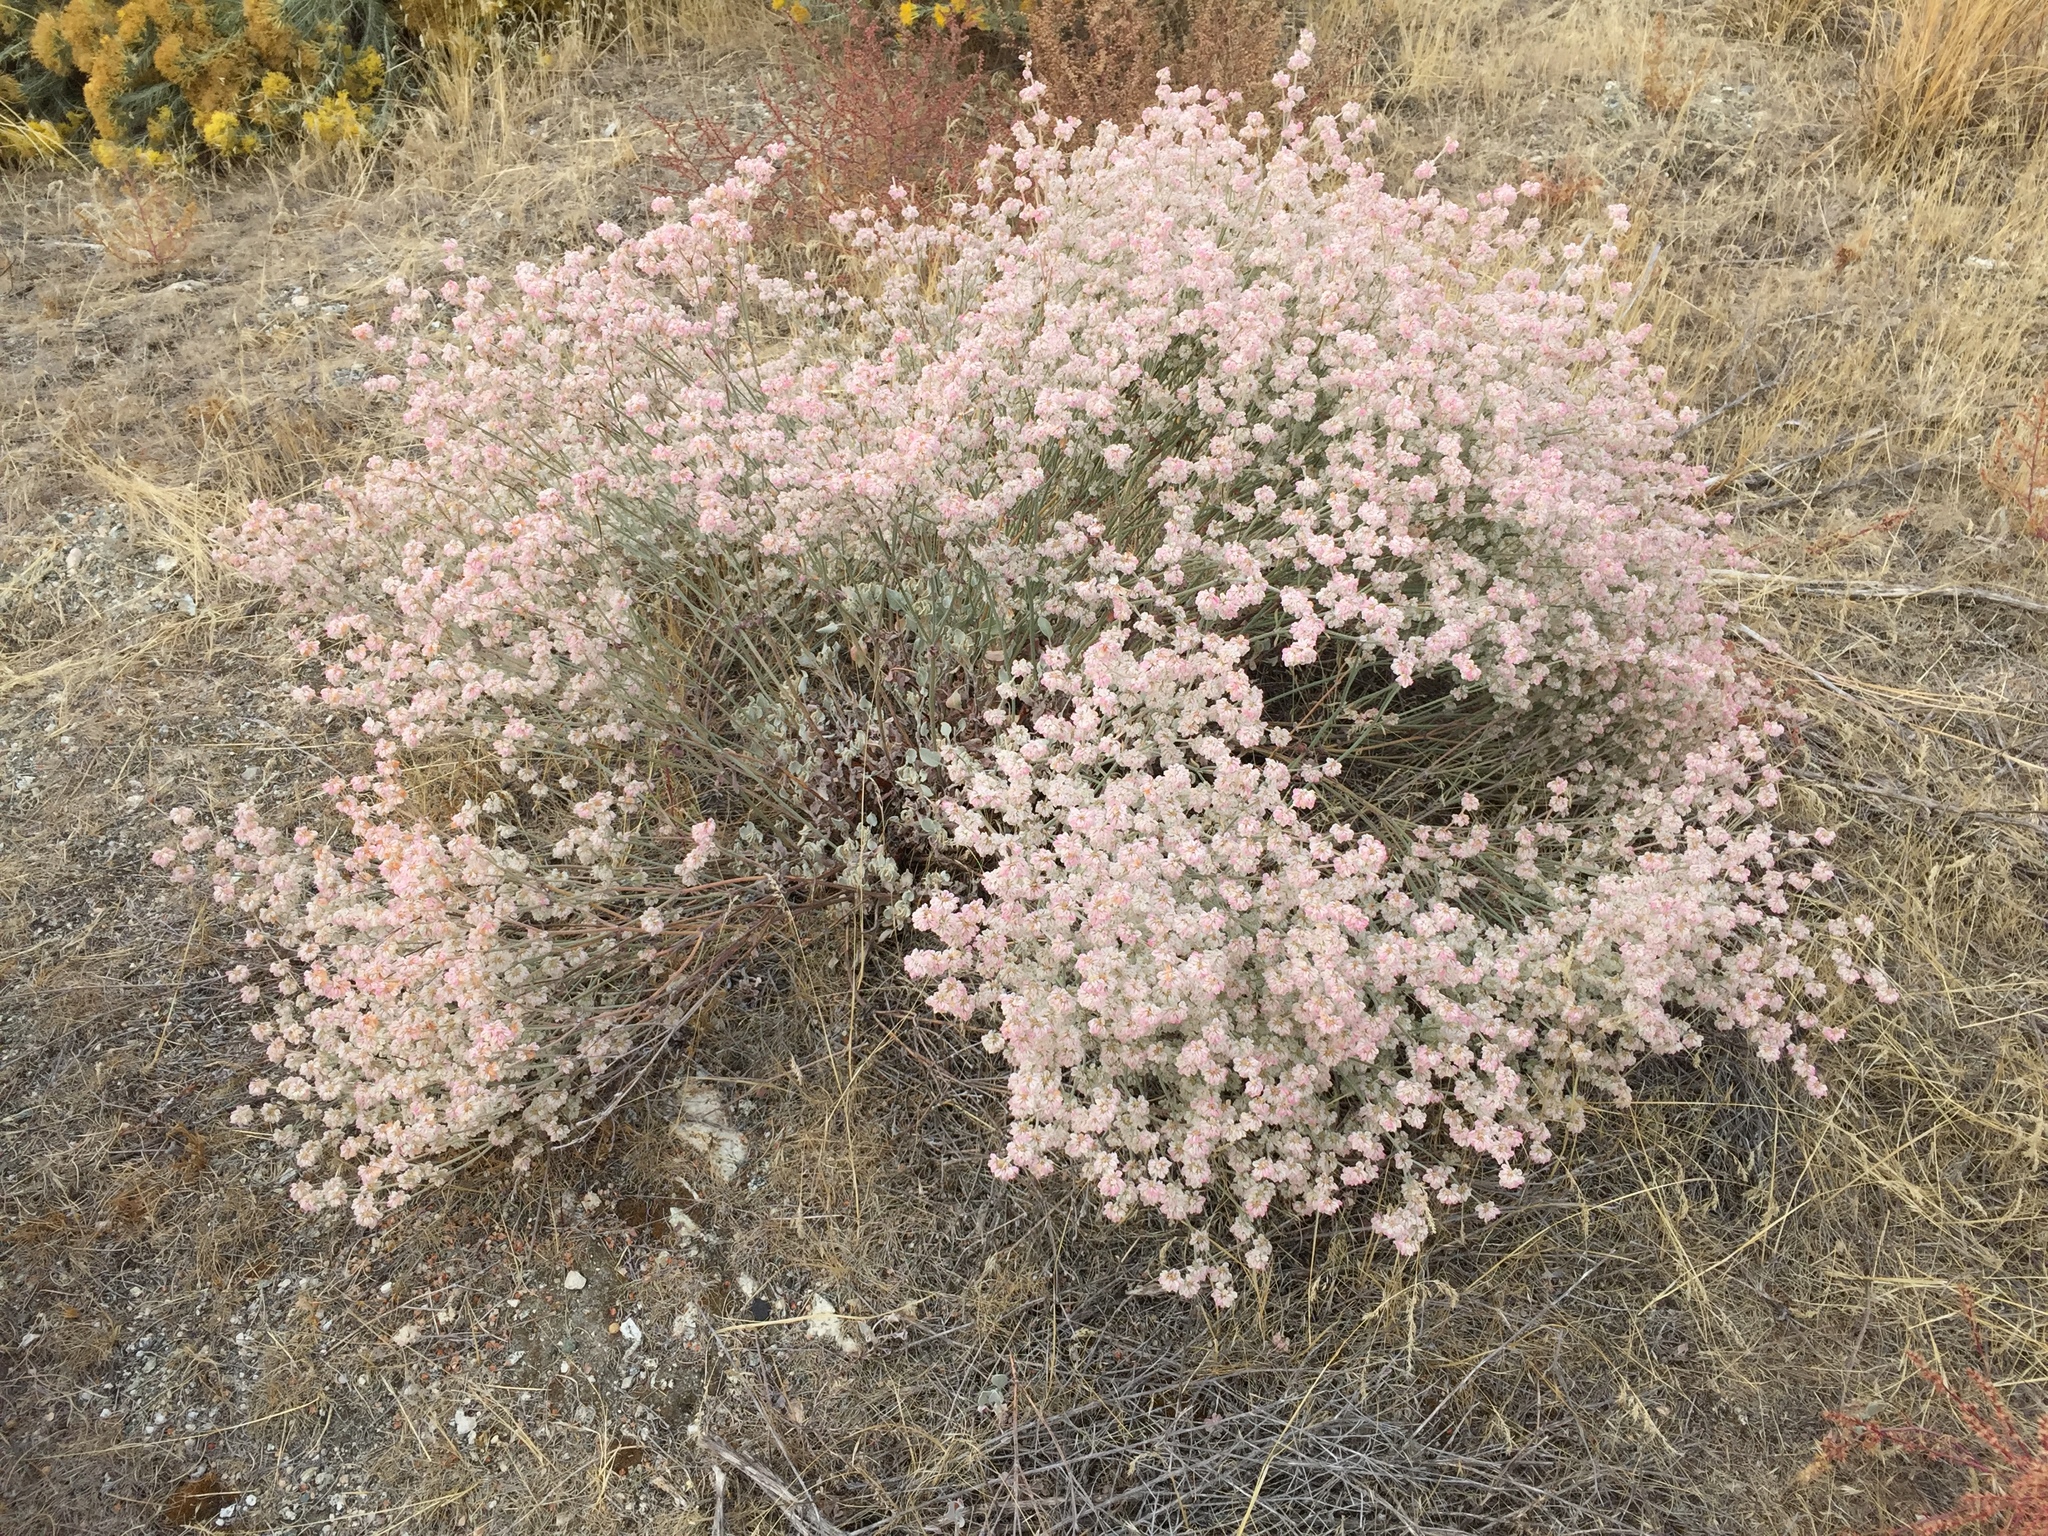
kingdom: Plantae
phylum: Tracheophyta
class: Magnoliopsida
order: Caryophyllales
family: Polygonaceae
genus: Eriogonum
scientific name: Eriogonum niveum
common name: Snow wild buckwheat
